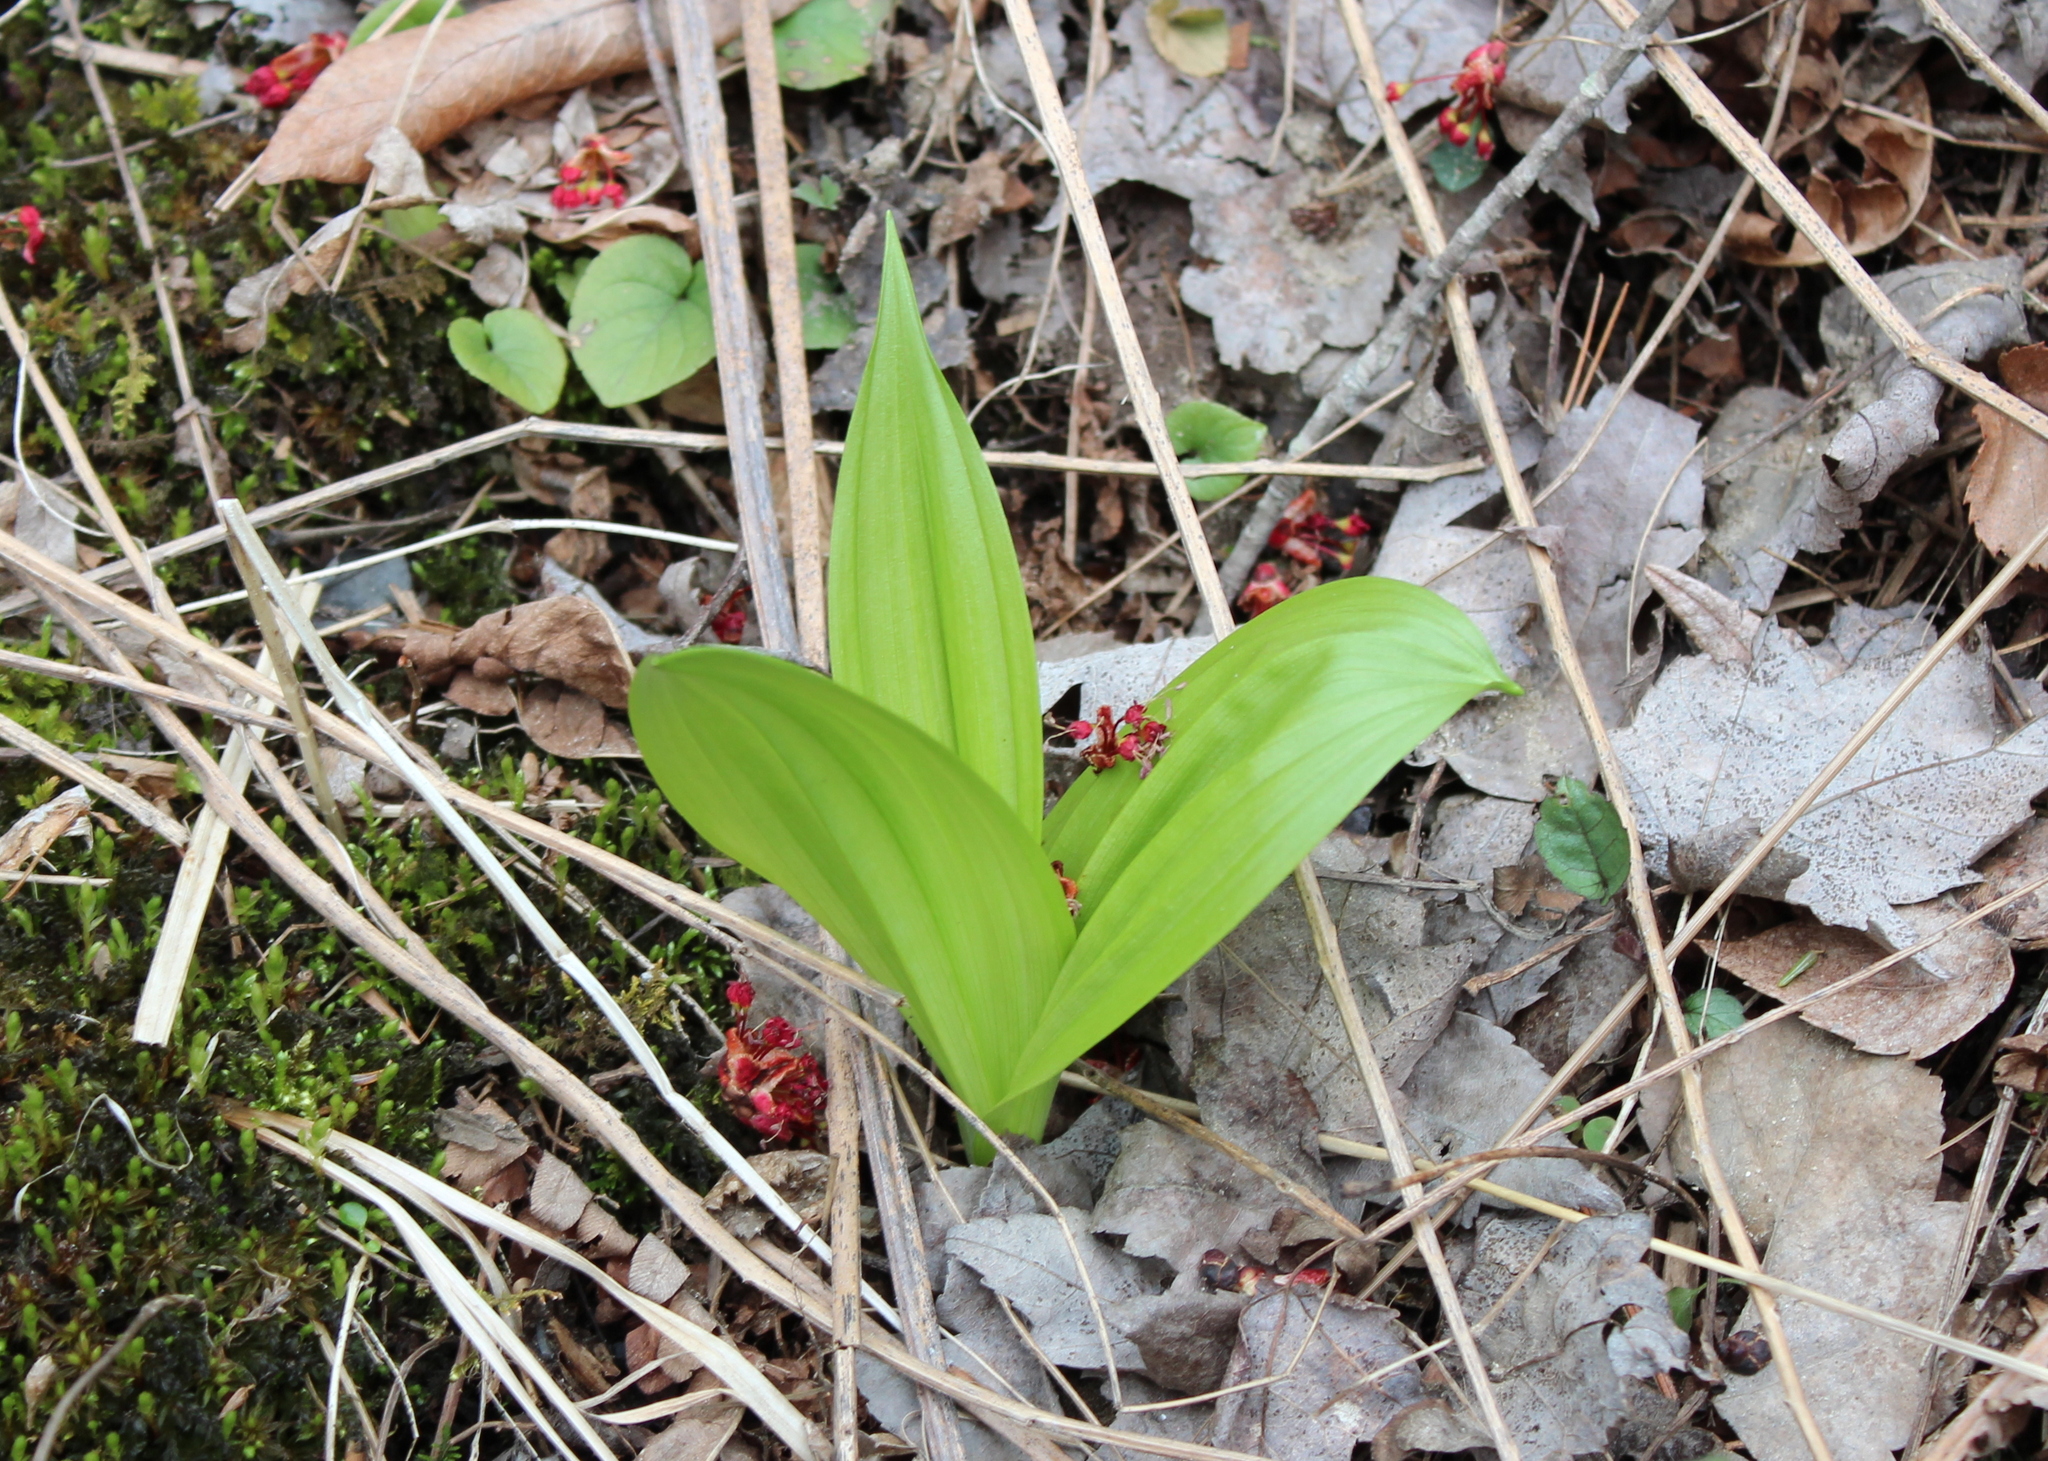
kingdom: Plantae
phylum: Tracheophyta
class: Liliopsida
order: Liliales
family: Melanthiaceae
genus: Veratrum
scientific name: Veratrum viride
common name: American false hellebore
